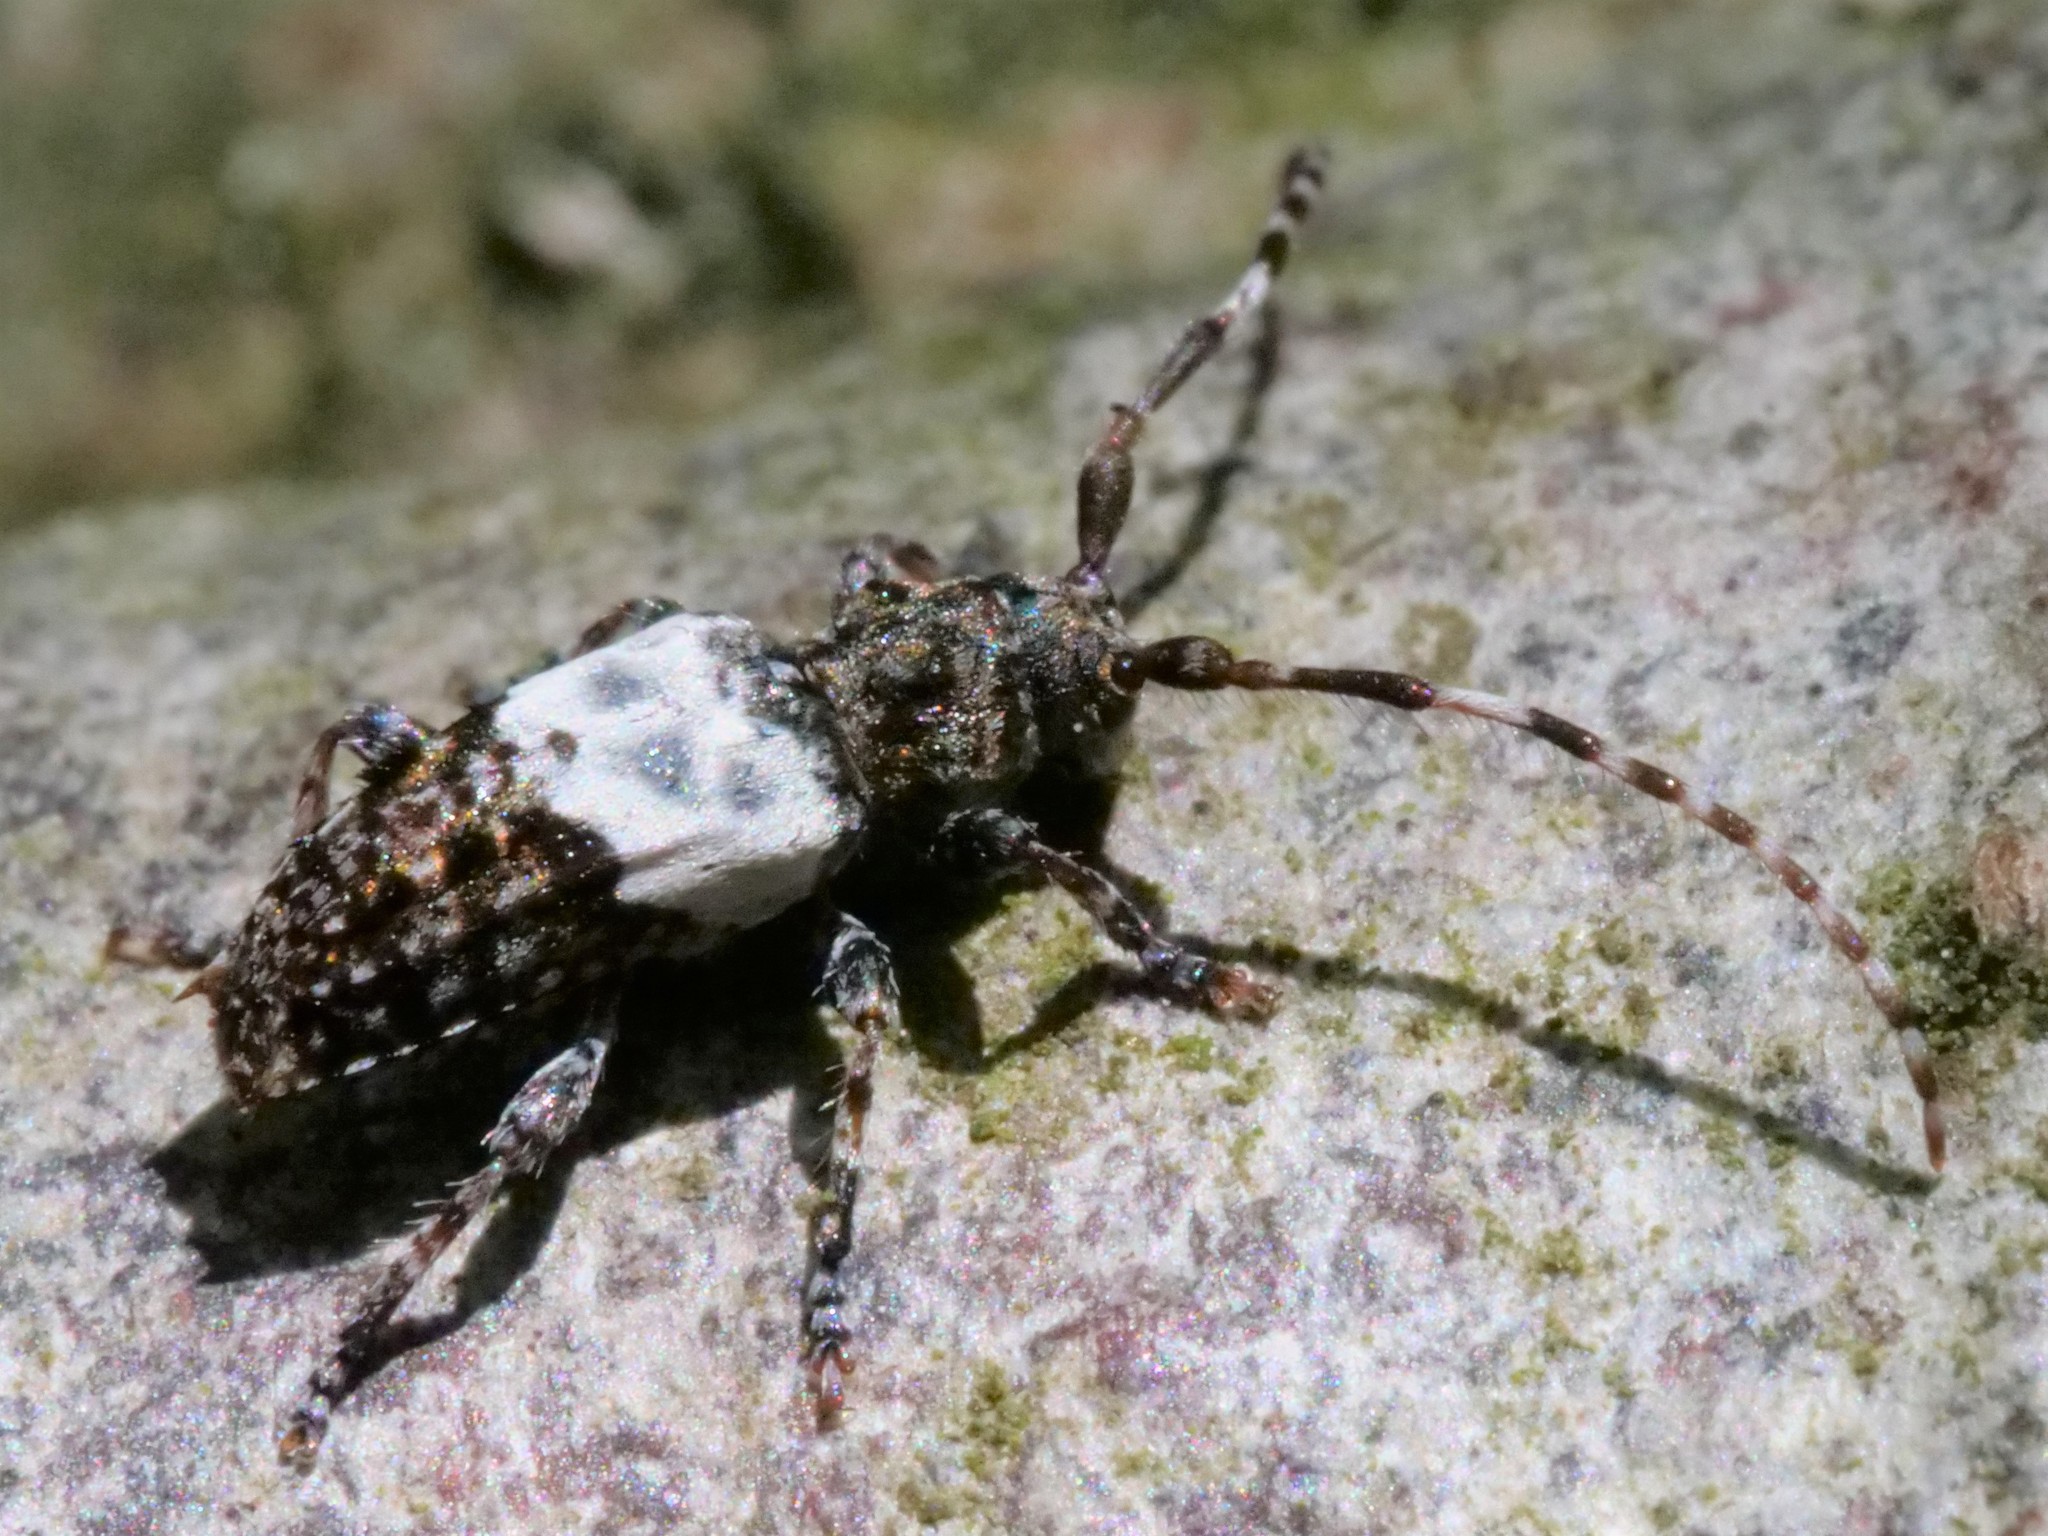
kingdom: Animalia
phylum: Arthropoda
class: Insecta
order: Coleoptera
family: Cerambycidae
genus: Pogonocherus
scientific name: Pogonocherus hispidulus
